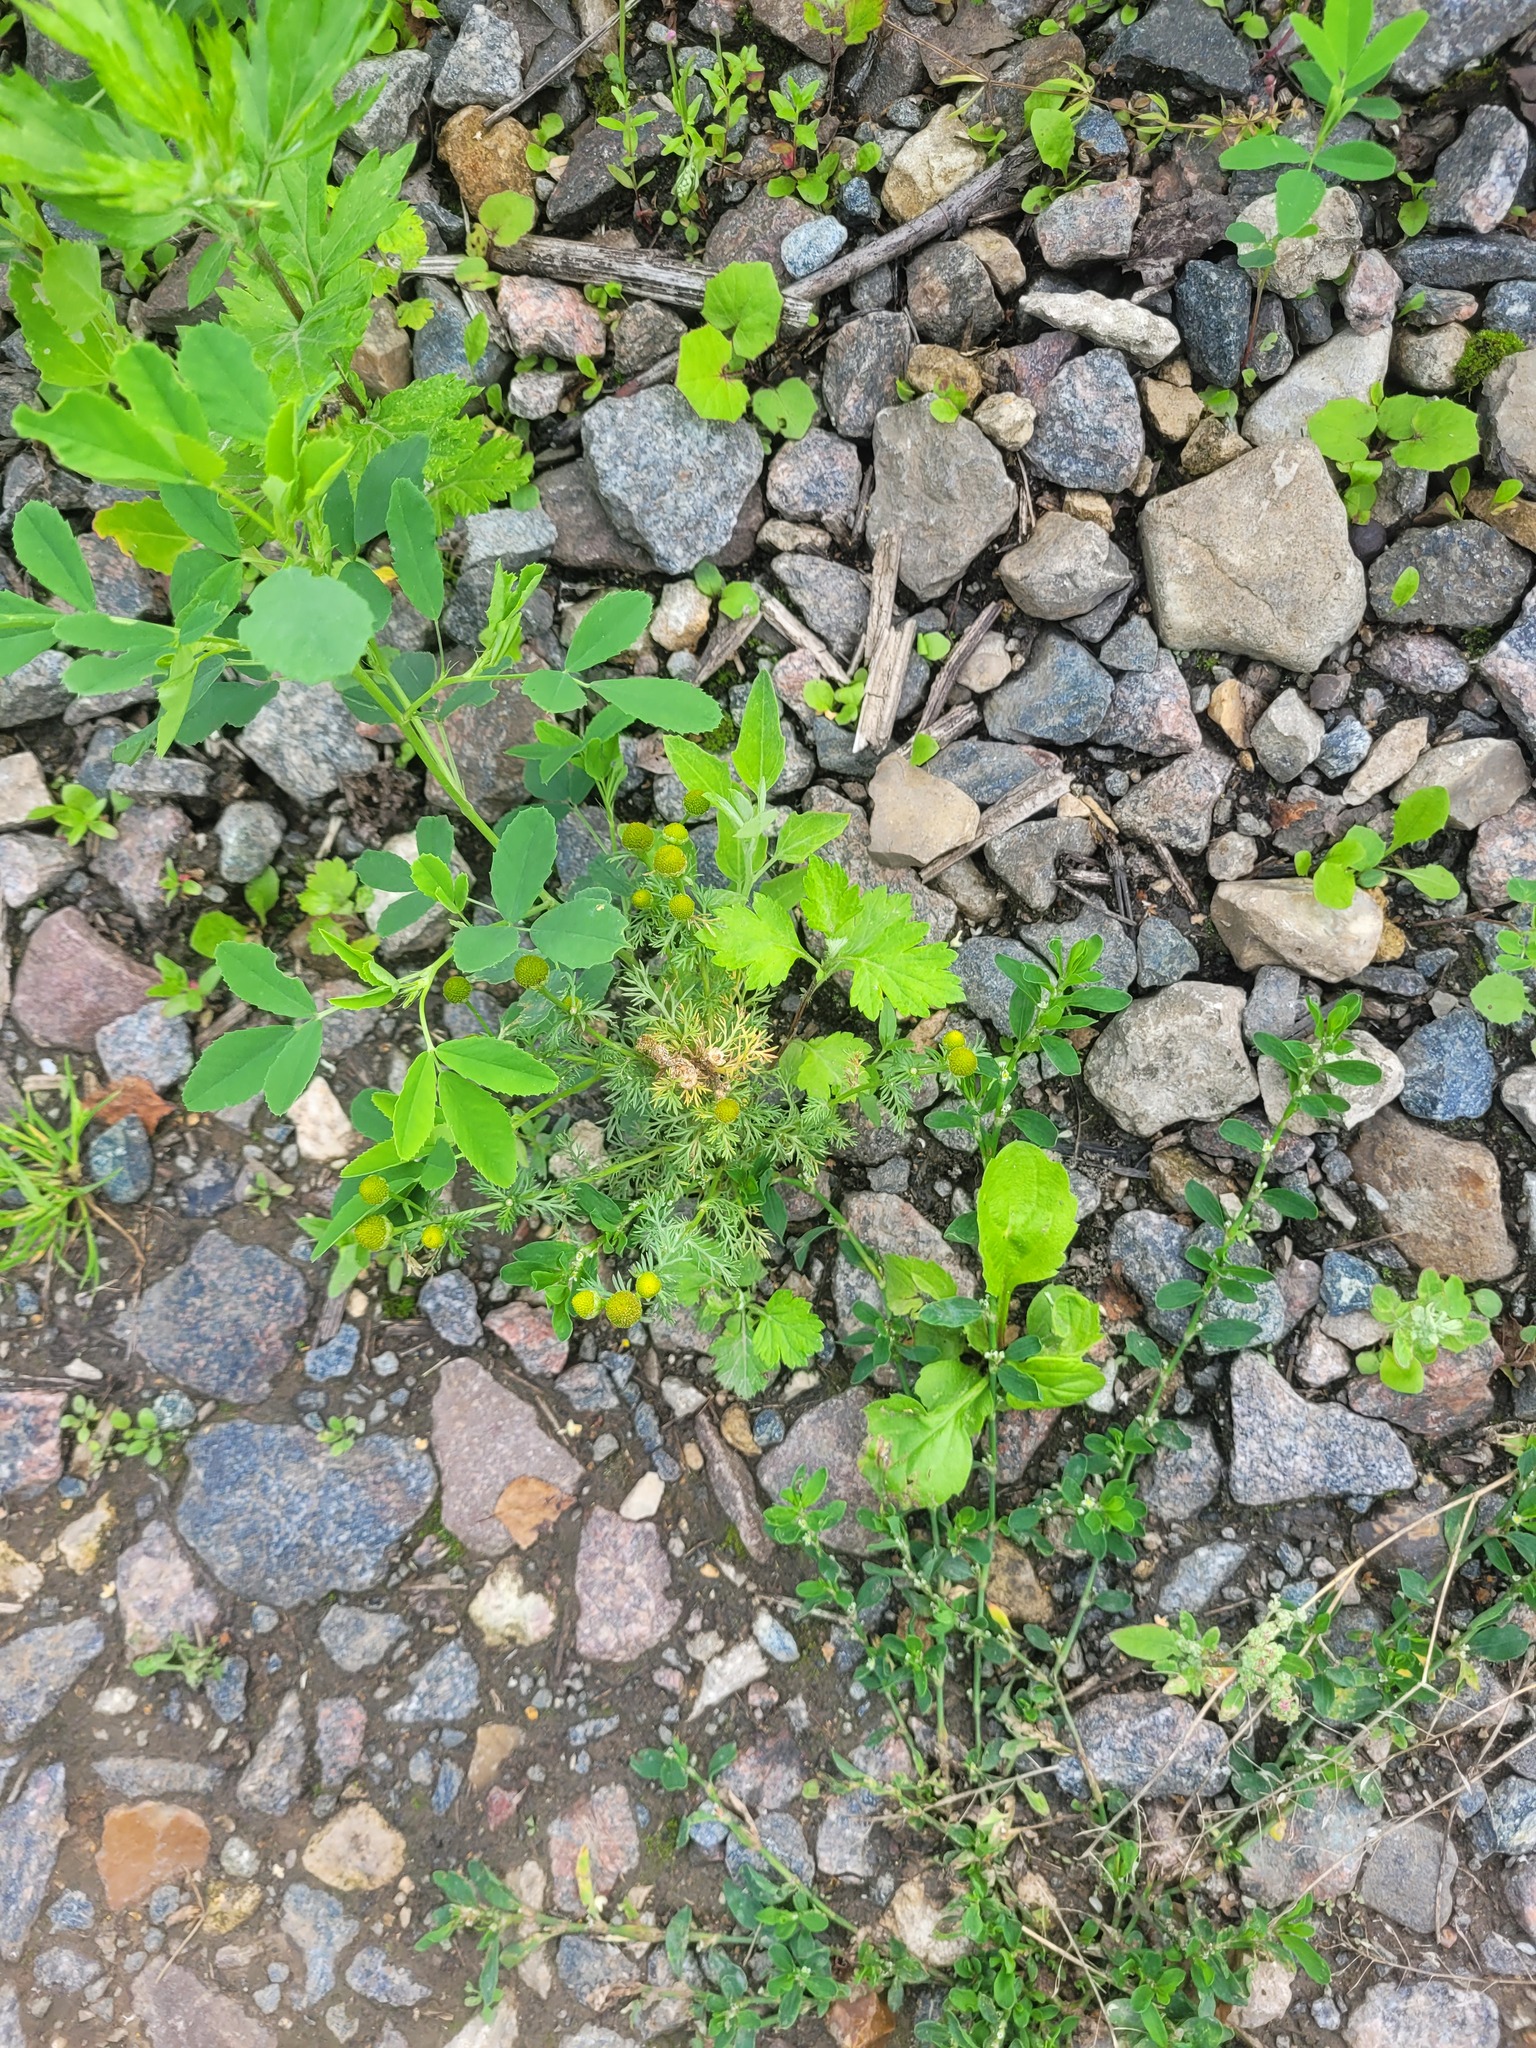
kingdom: Plantae
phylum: Tracheophyta
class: Magnoliopsida
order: Asterales
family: Asteraceae
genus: Matricaria
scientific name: Matricaria discoidea
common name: Disc mayweed
